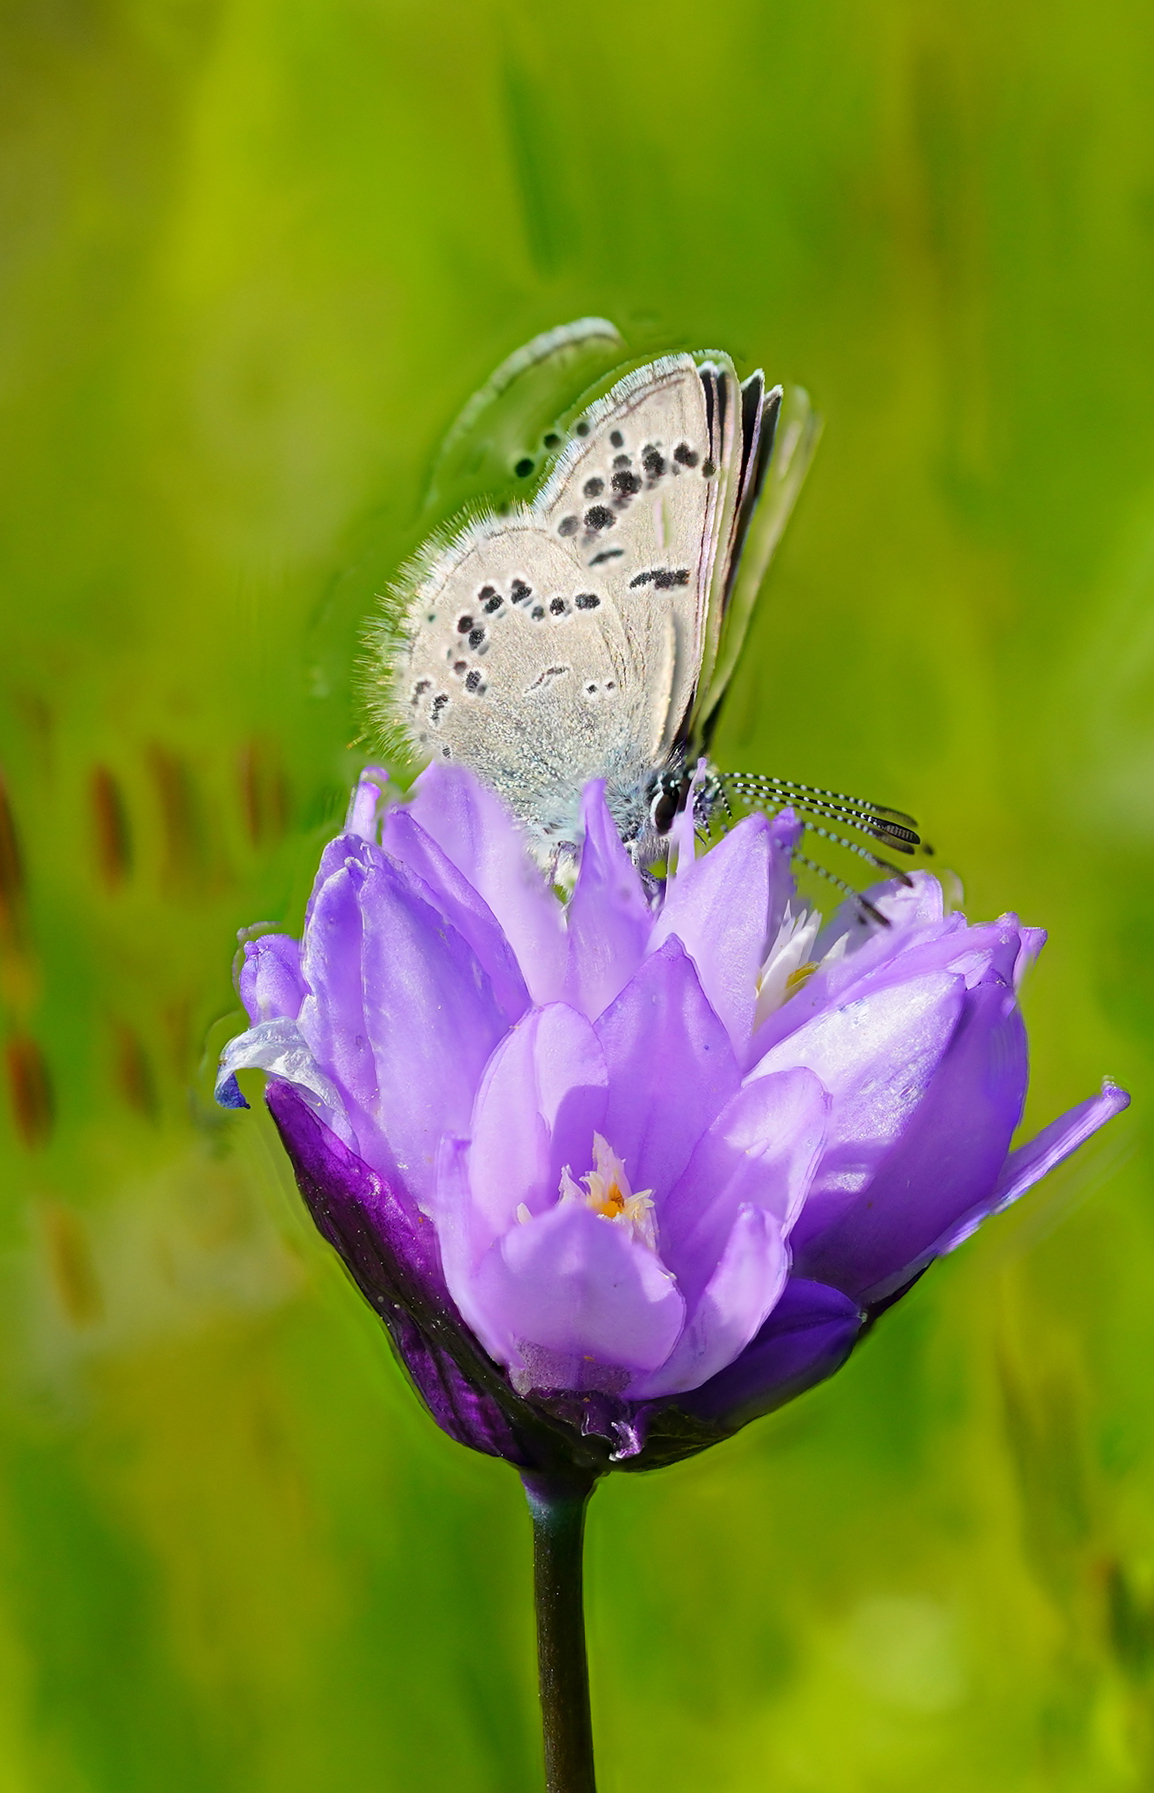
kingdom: Animalia
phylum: Arthropoda
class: Insecta
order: Lepidoptera
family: Lycaenidae
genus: Glaucopsyche
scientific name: Glaucopsyche lygdamus
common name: Silvery blue
